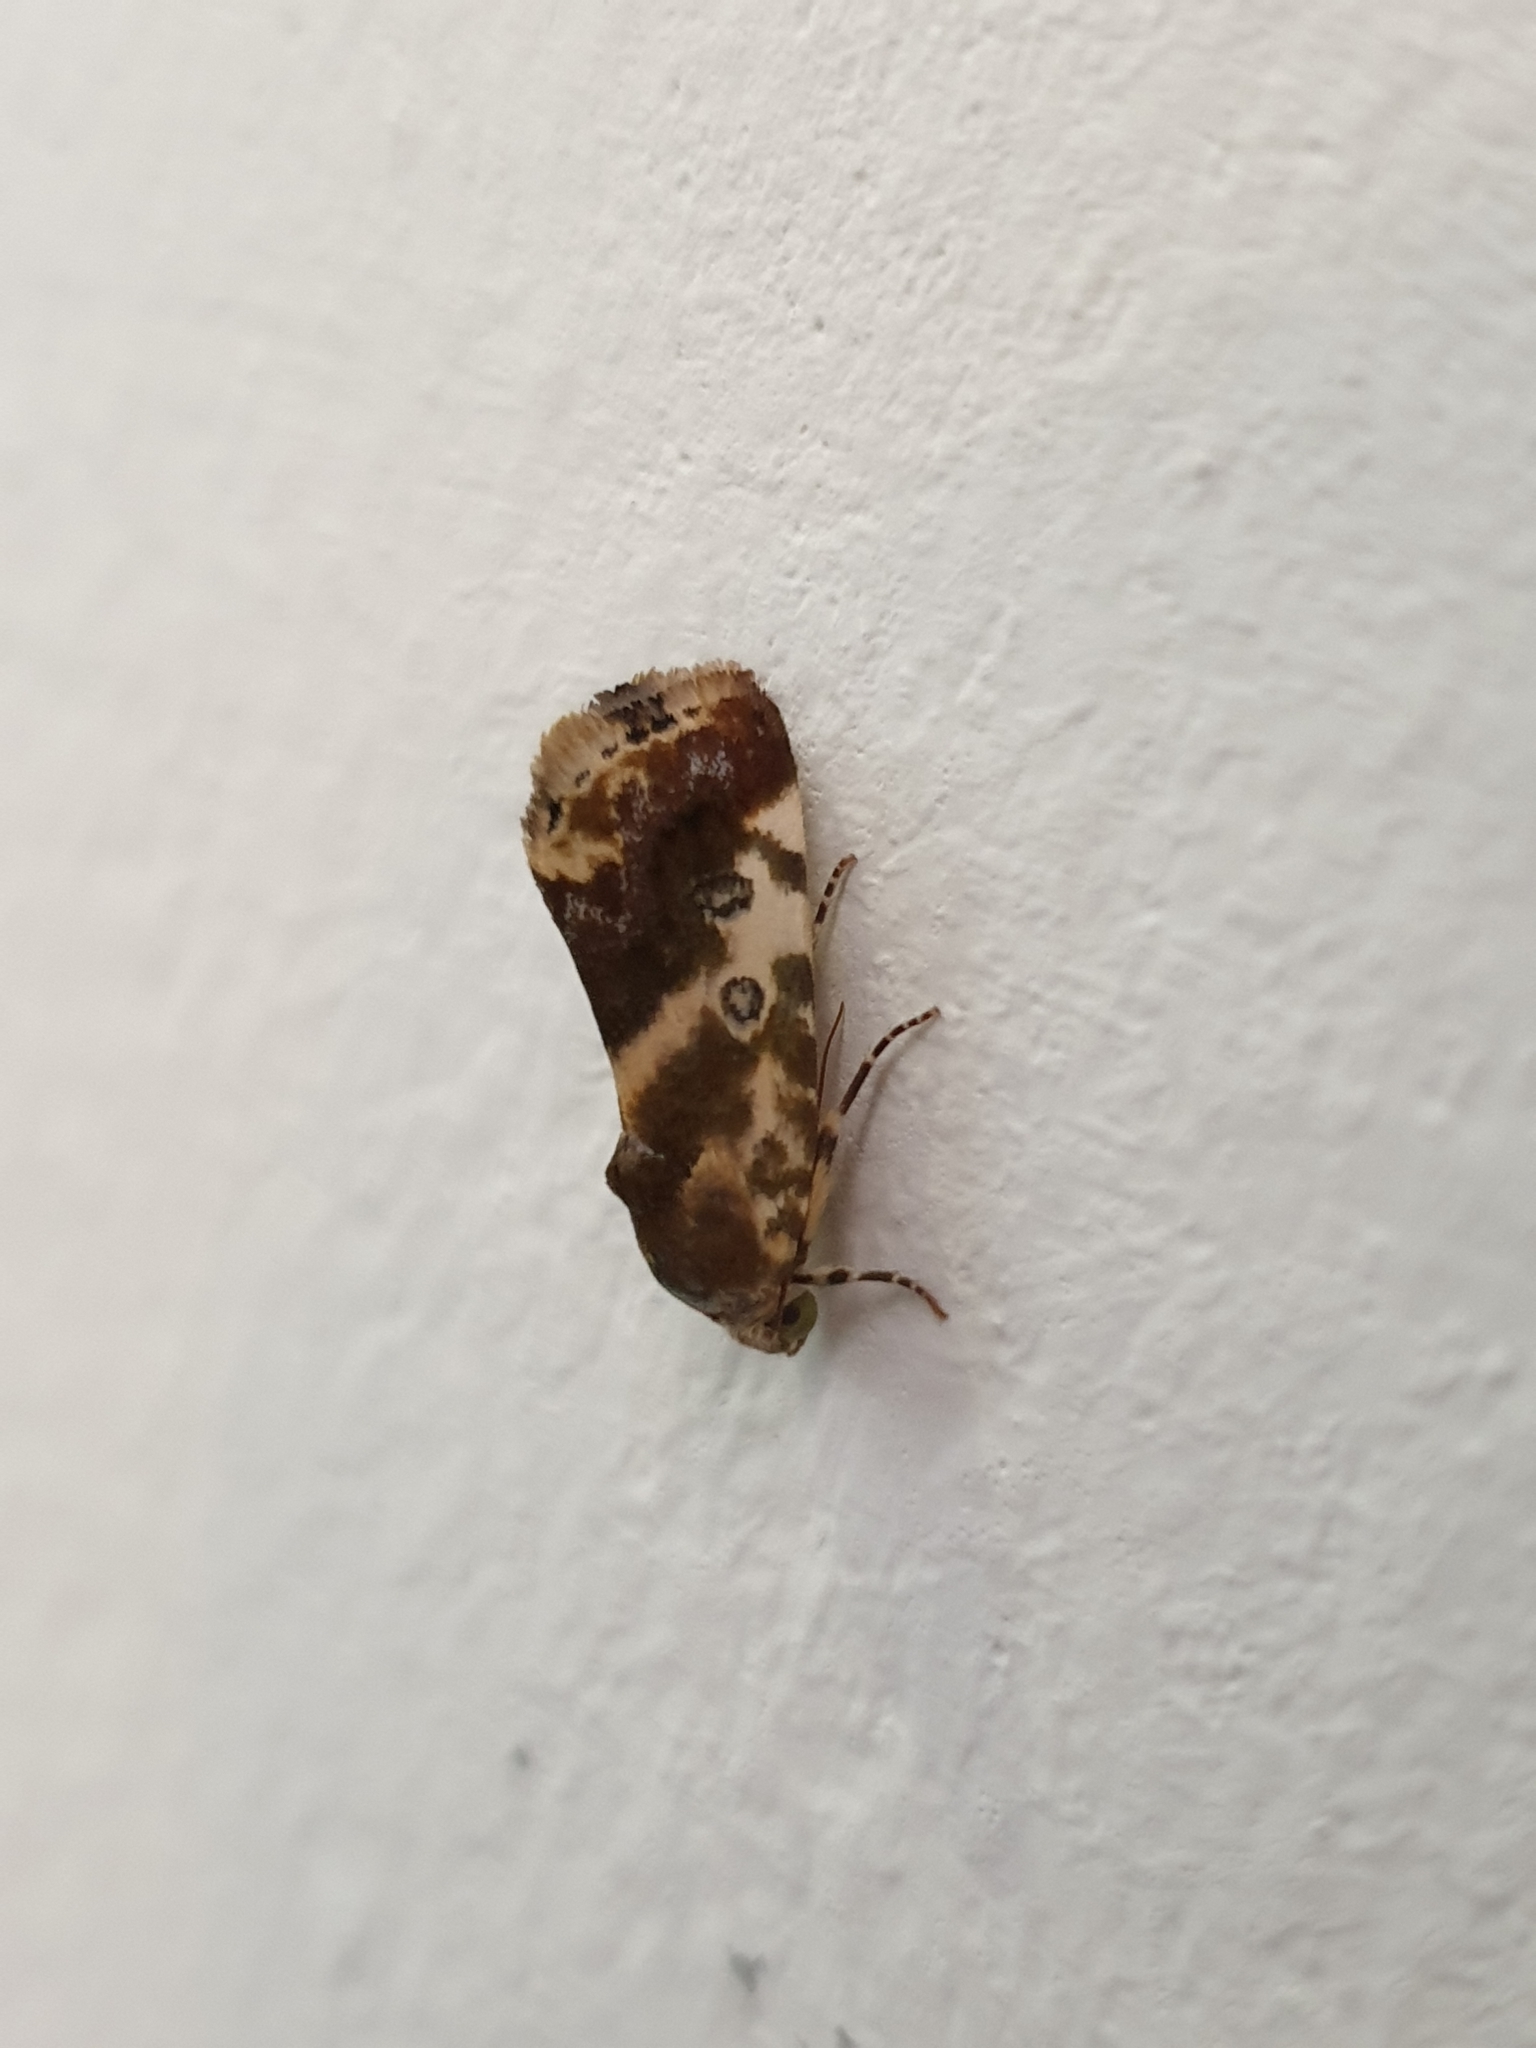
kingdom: Animalia
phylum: Arthropoda
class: Insecta
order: Lepidoptera
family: Noctuidae
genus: Acontia
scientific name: Acontia marmoralis
